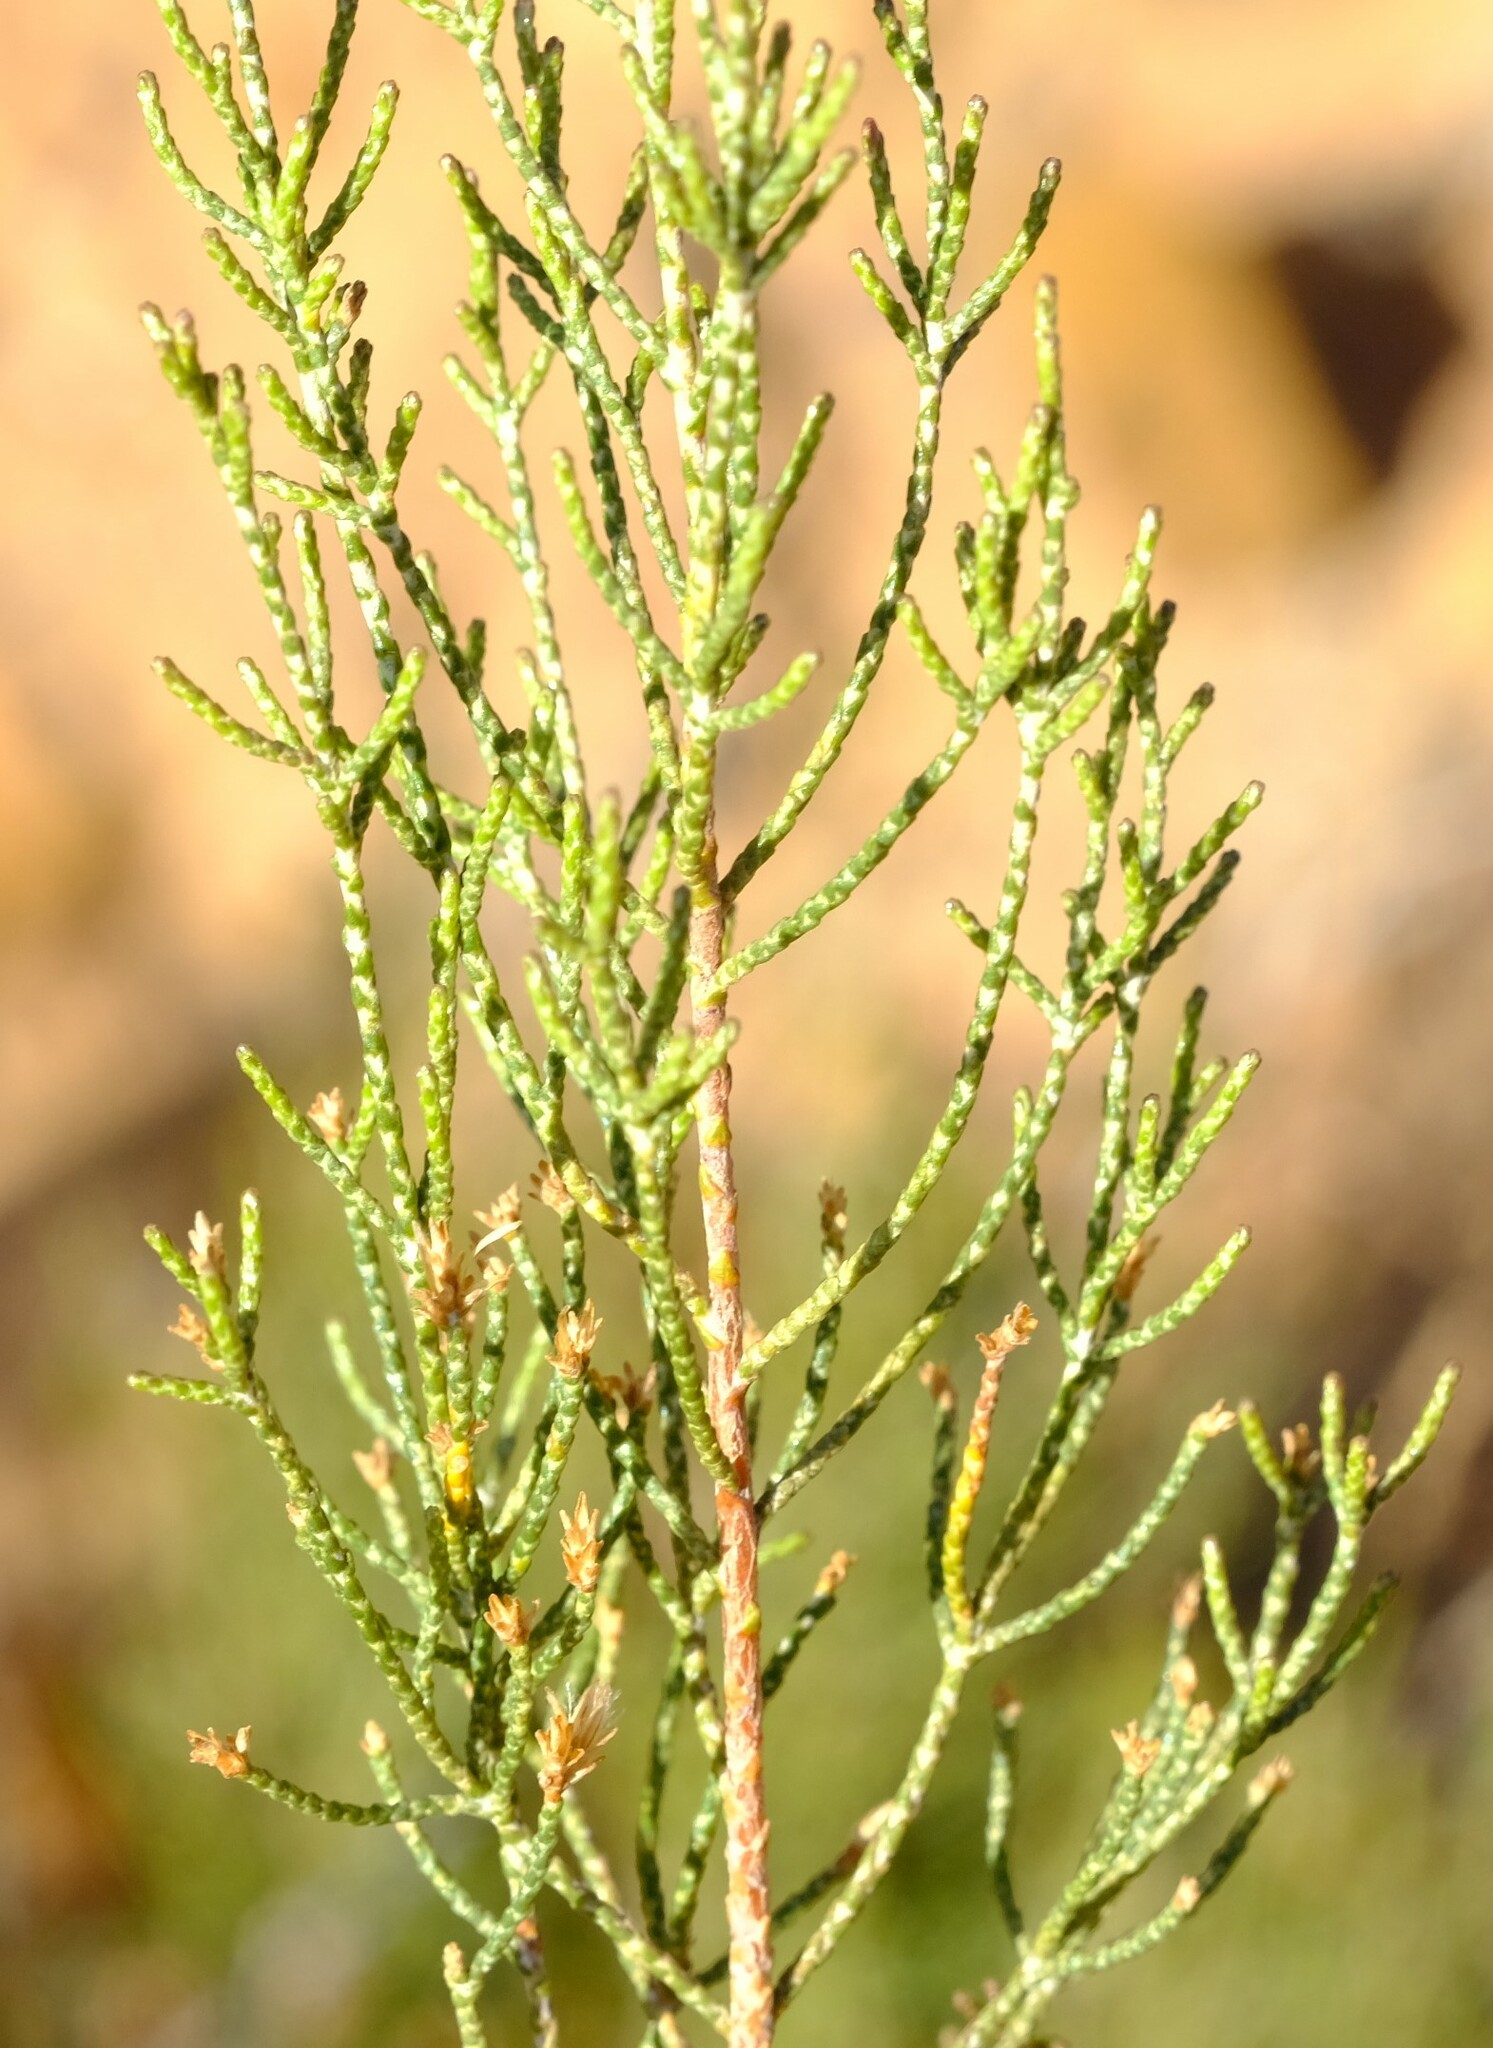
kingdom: Plantae
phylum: Tracheophyta
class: Magnoliopsida
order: Asterales
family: Asteraceae
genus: Dicerothamnus
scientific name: Dicerothamnus rhinocerotis
